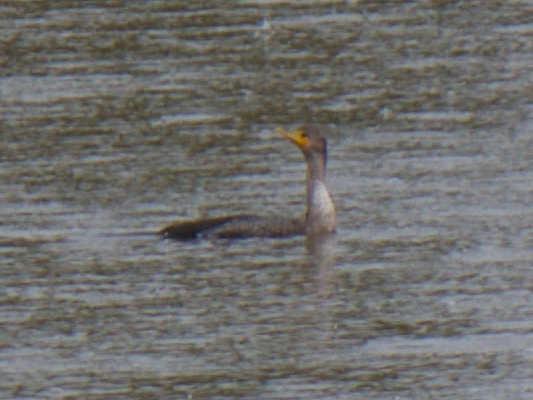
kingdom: Animalia
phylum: Chordata
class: Aves
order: Suliformes
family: Phalacrocoracidae
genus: Phalacrocorax
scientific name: Phalacrocorax auritus
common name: Double-crested cormorant
